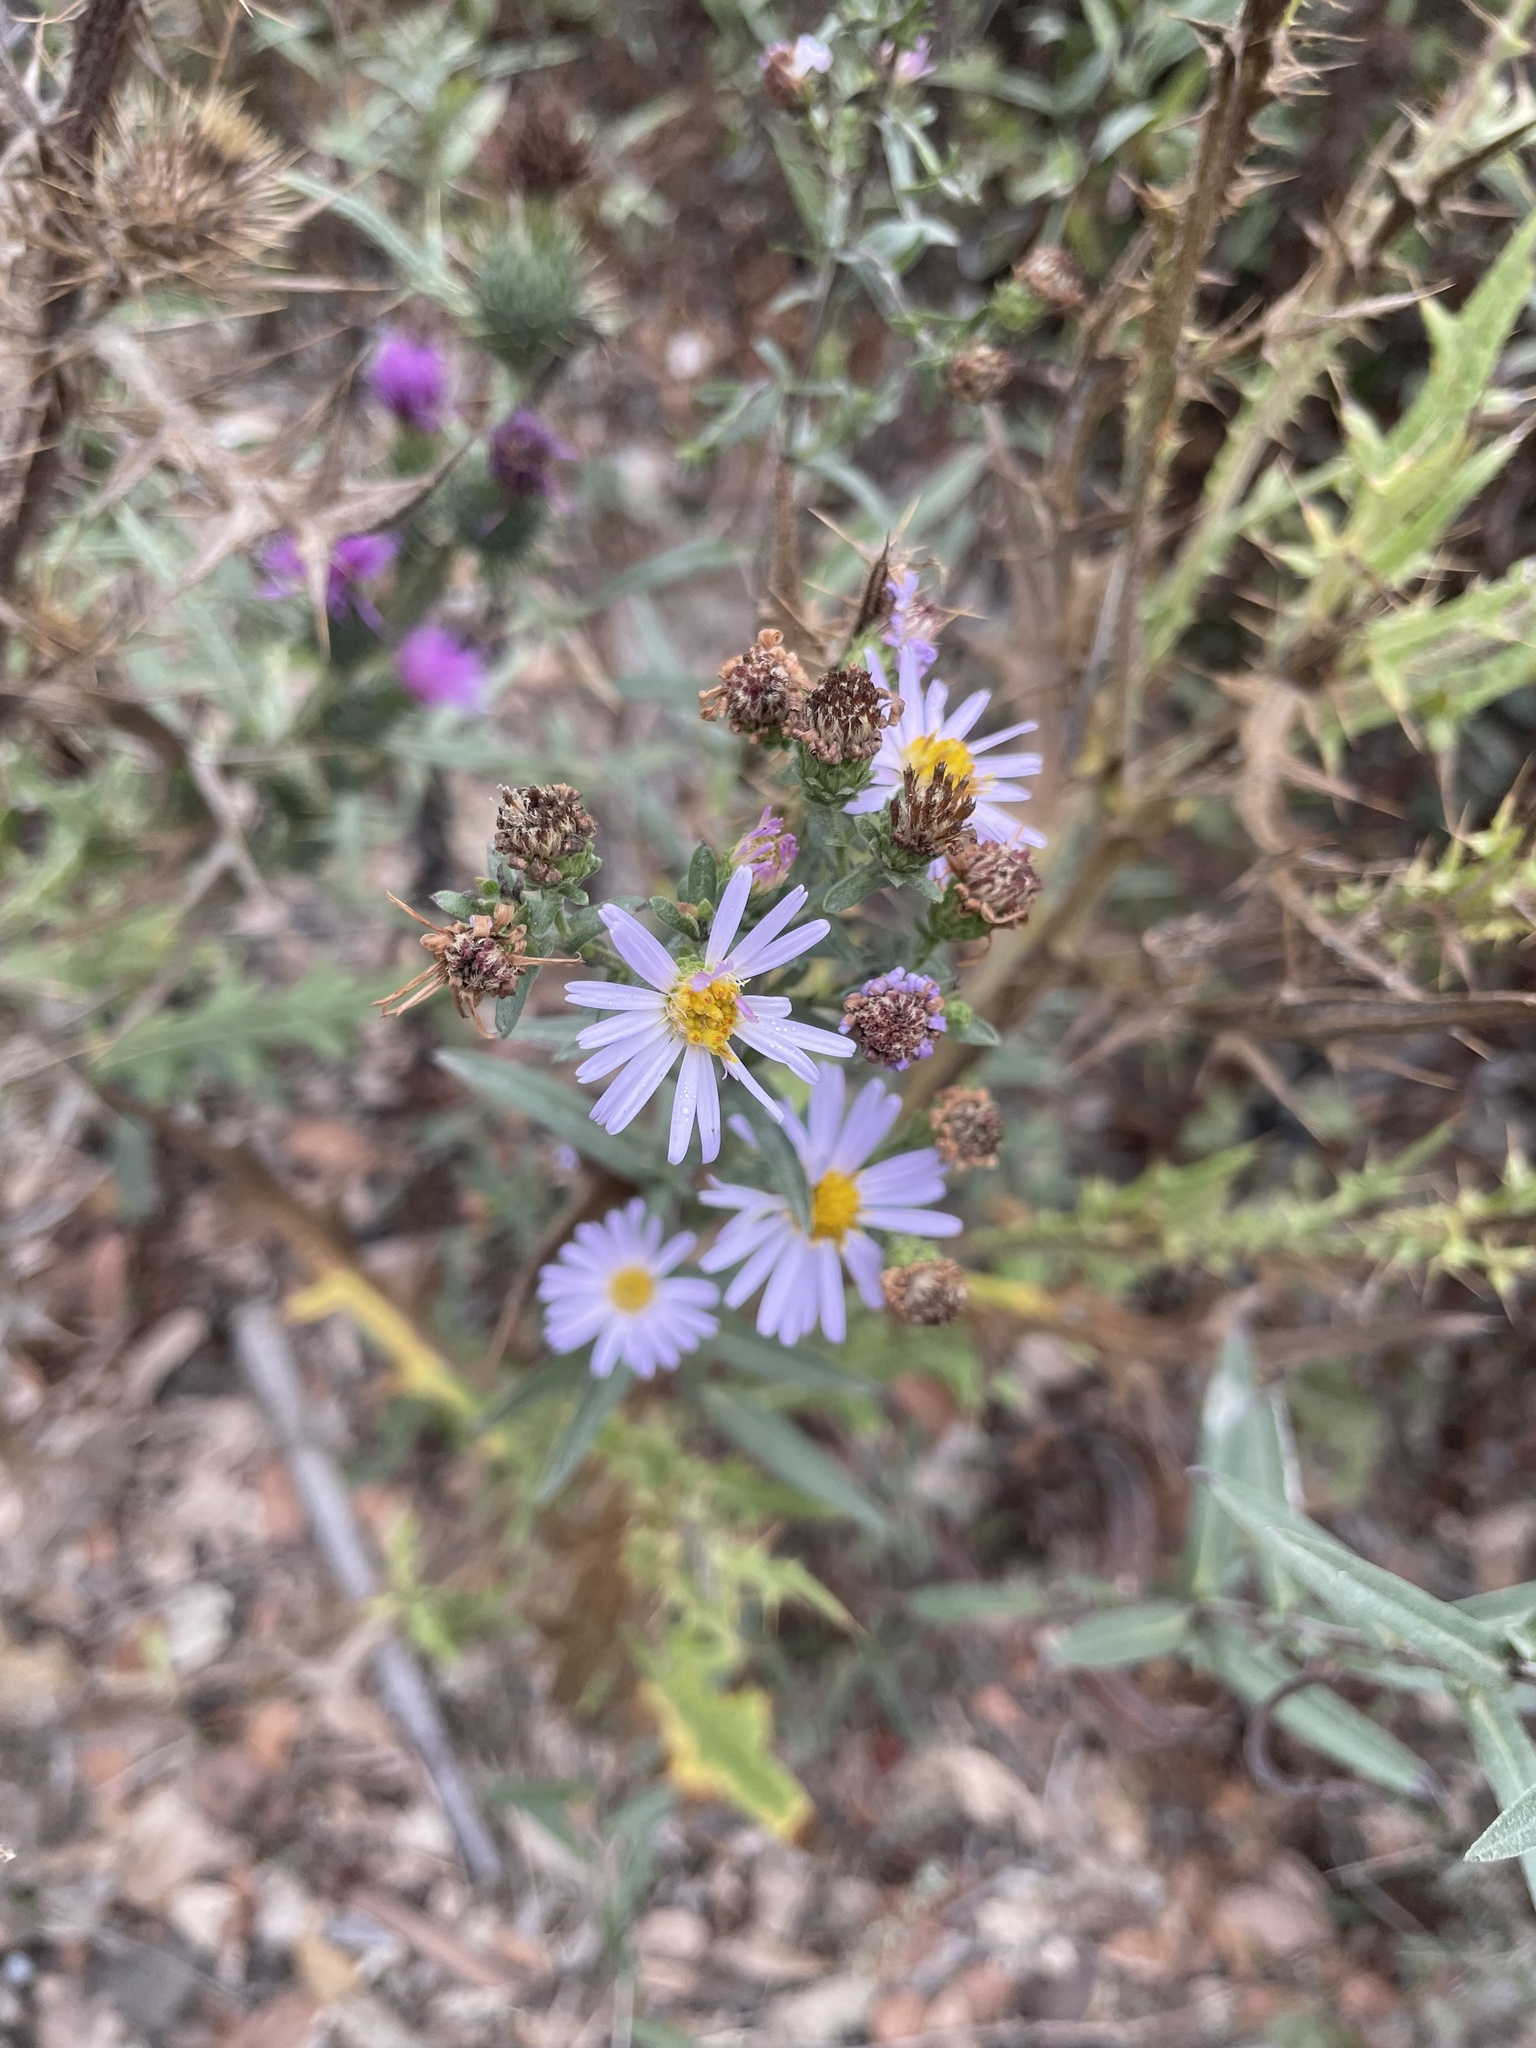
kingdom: Plantae
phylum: Tracheophyta
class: Magnoliopsida
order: Asterales
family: Asteraceae
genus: Symphyotrichum
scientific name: Symphyotrichum chilense
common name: Pacific aster
